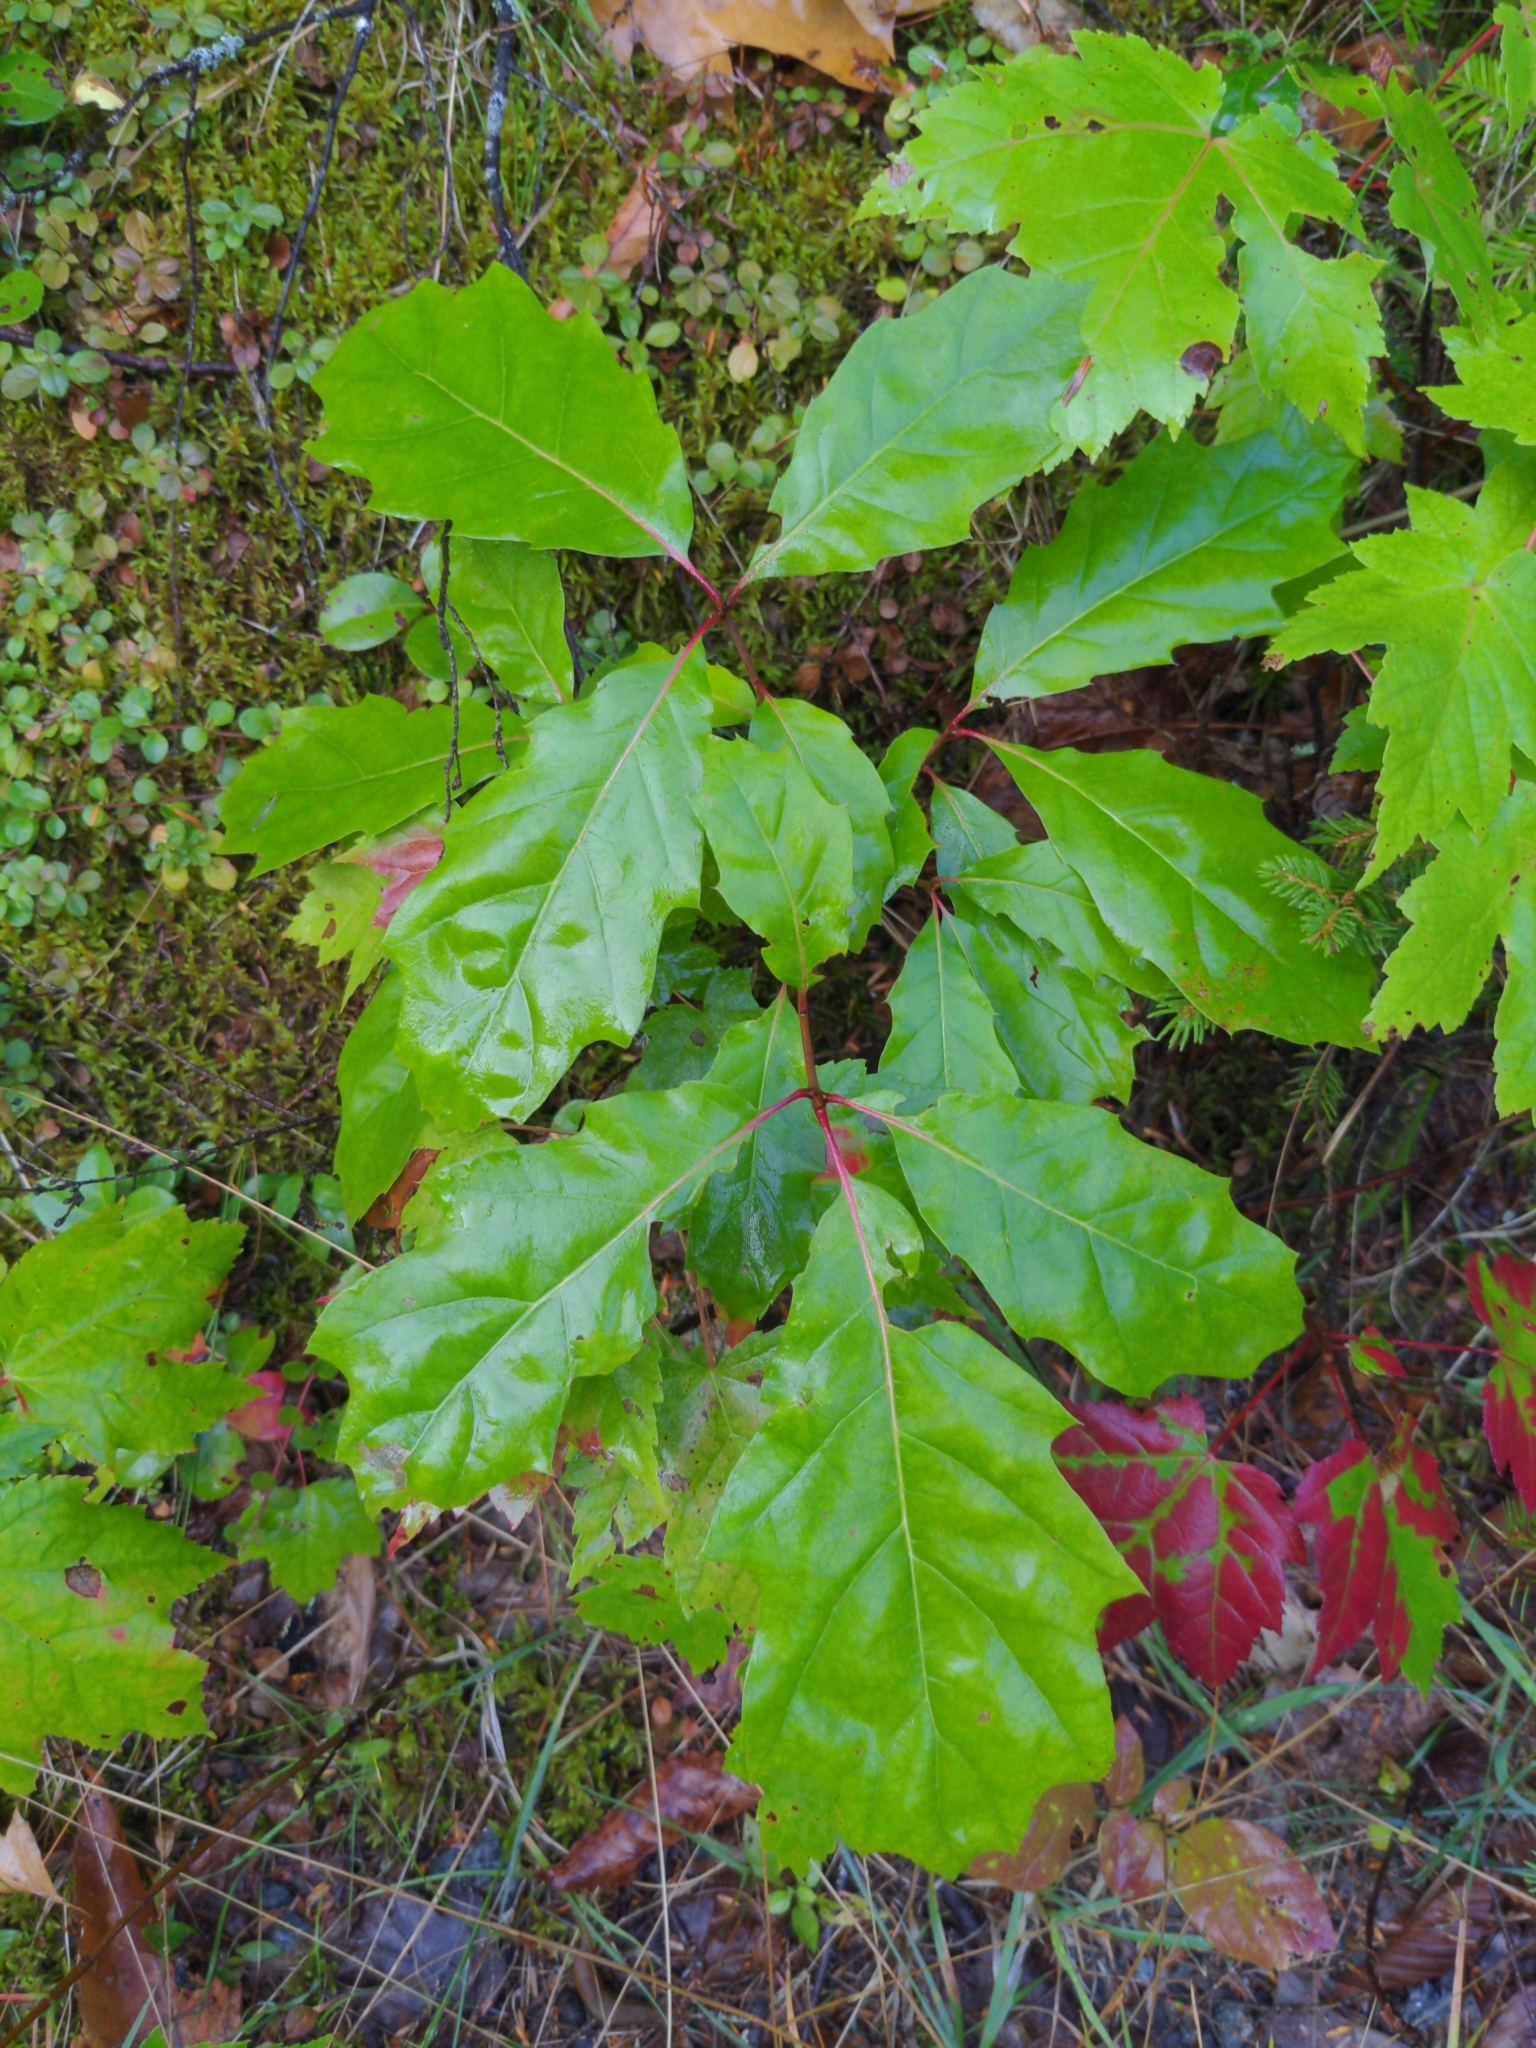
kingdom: Plantae
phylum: Tracheophyta
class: Magnoliopsida
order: Fagales
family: Fagaceae
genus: Quercus
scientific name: Quercus rubra
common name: Red oak
